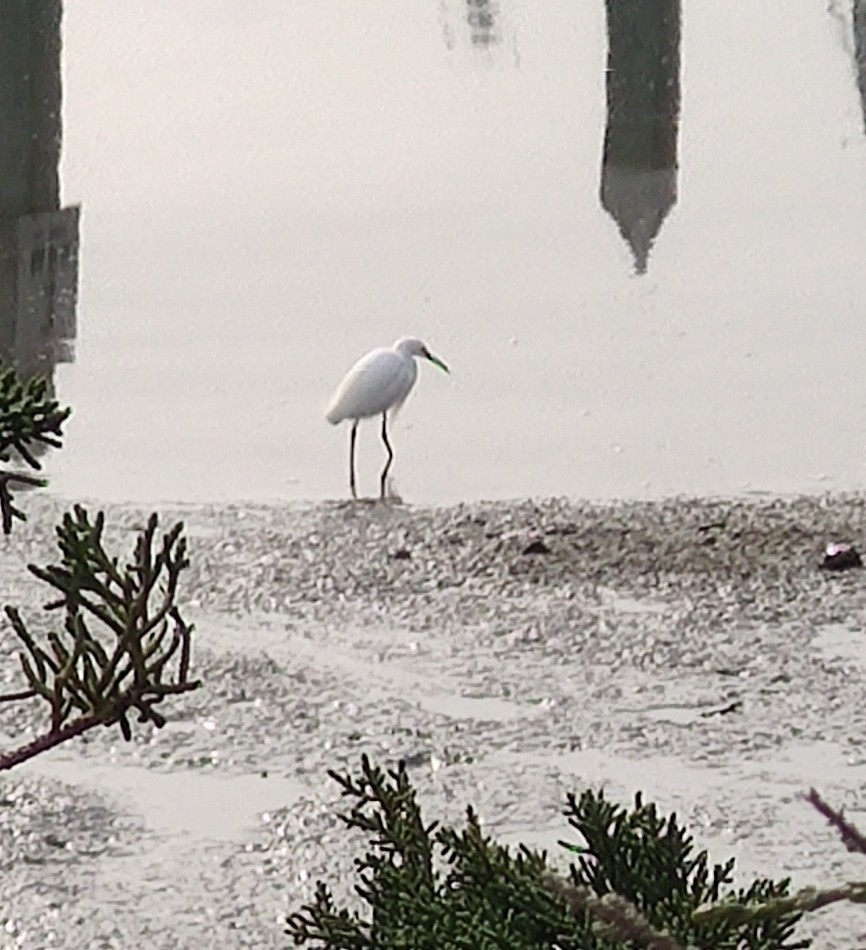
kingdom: Animalia
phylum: Chordata
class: Aves
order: Pelecaniformes
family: Ardeidae
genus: Egretta
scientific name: Egretta thula
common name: Snowy egret
